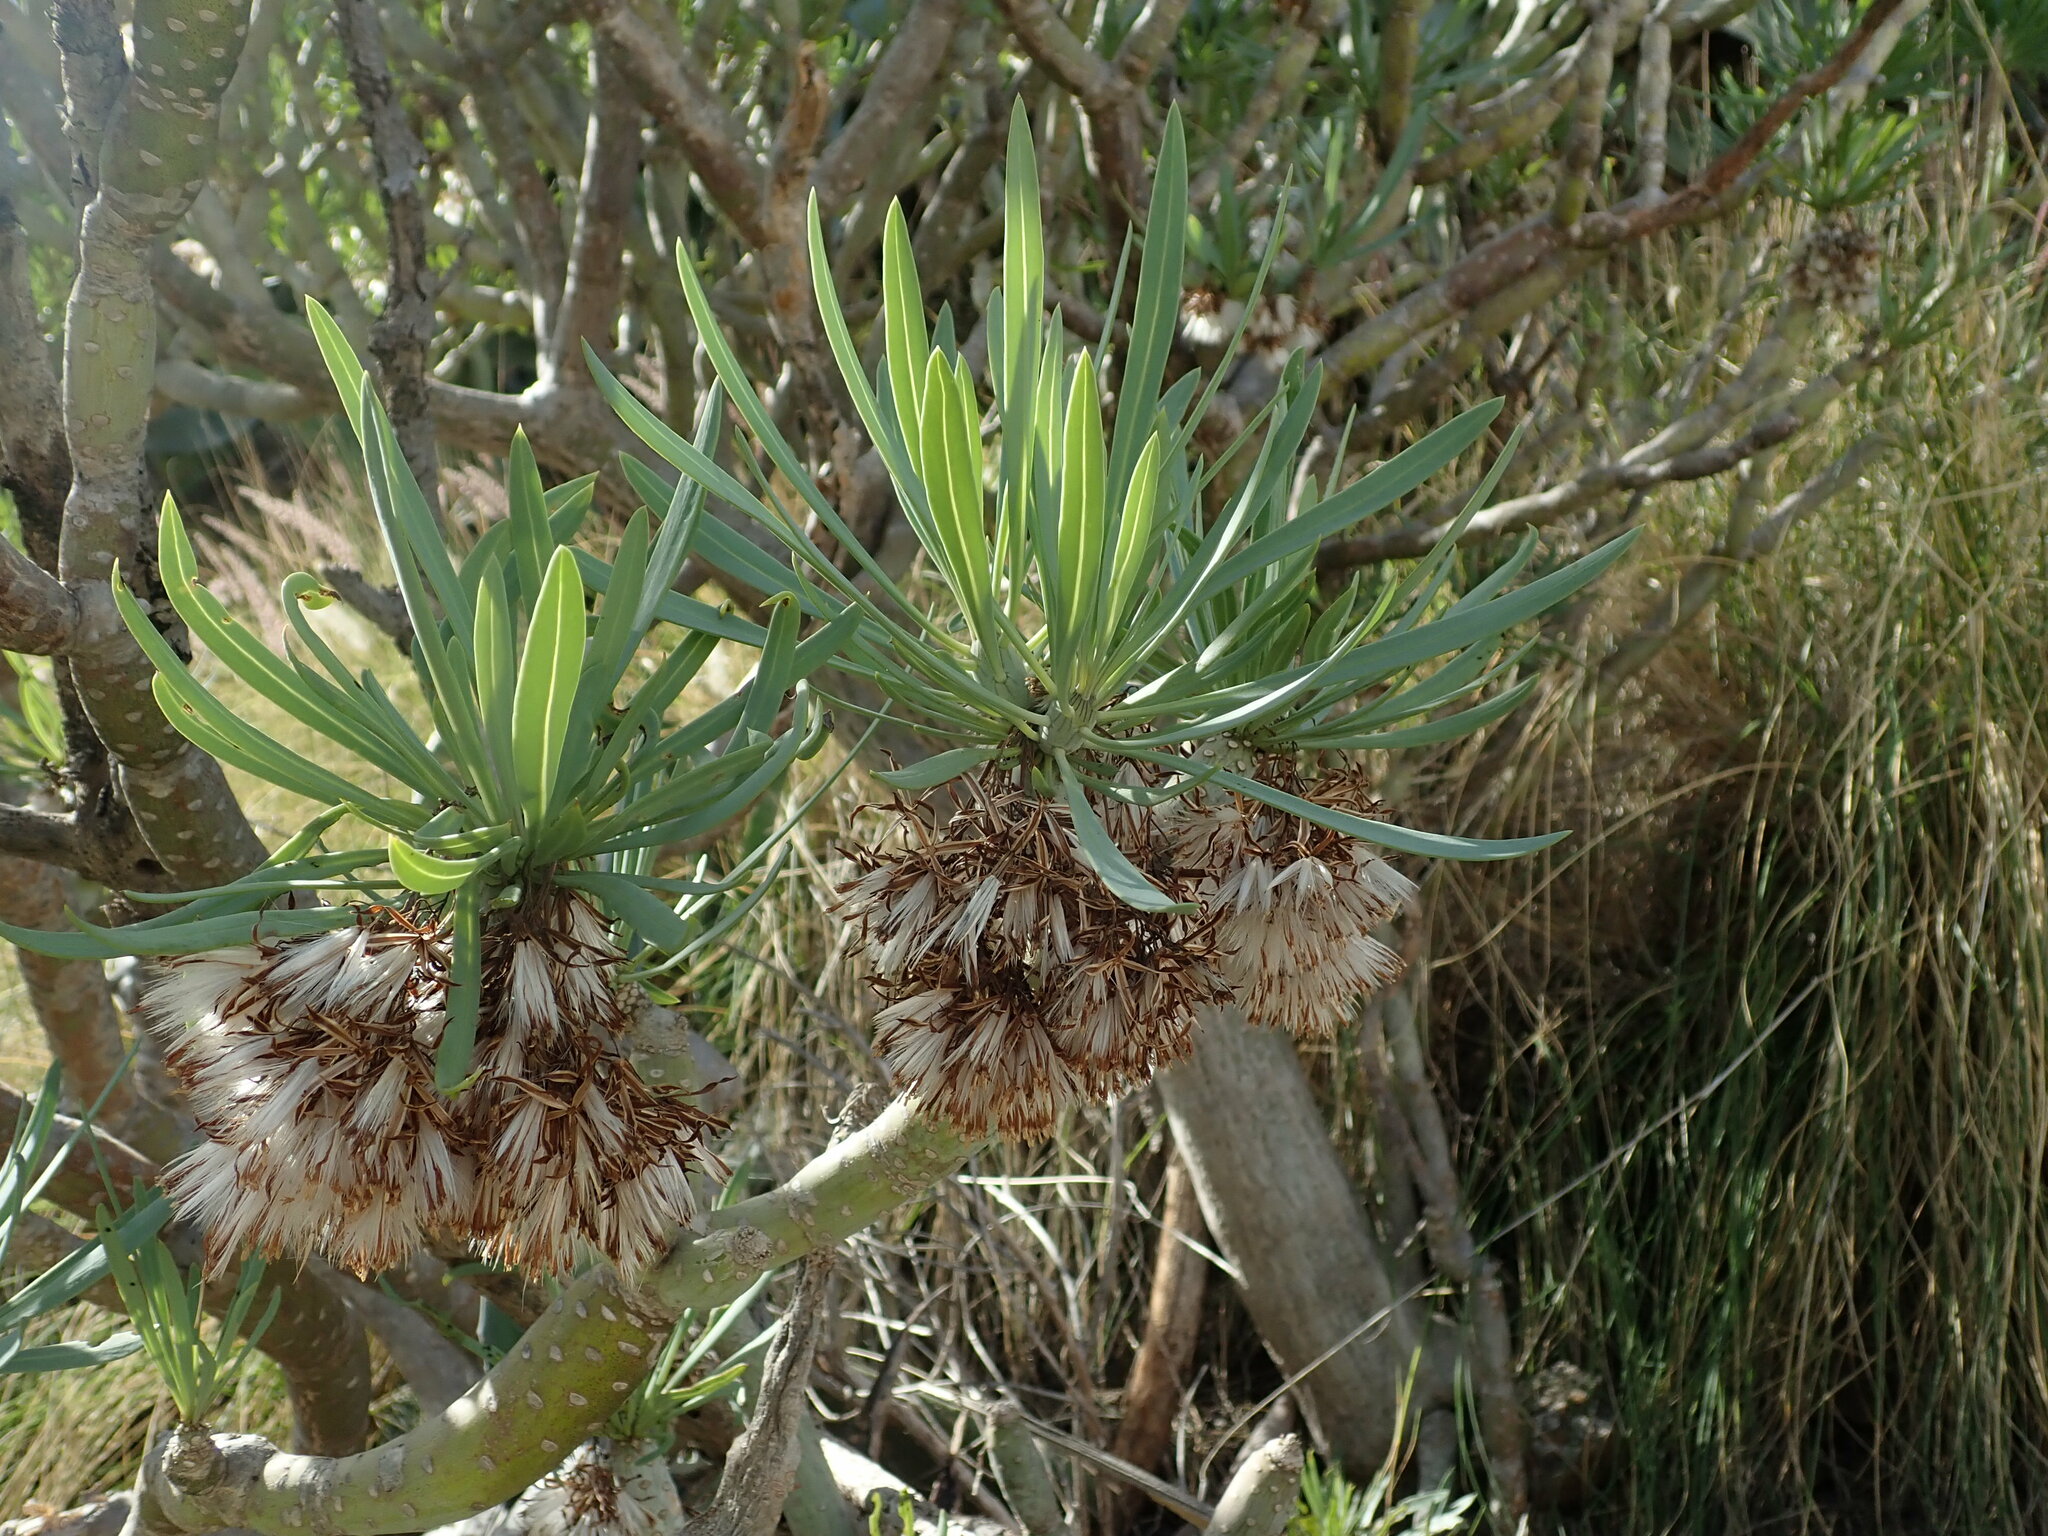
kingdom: Plantae
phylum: Tracheophyta
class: Magnoliopsida
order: Asterales
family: Asteraceae
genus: Kleinia
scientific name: Kleinia neriifolia
